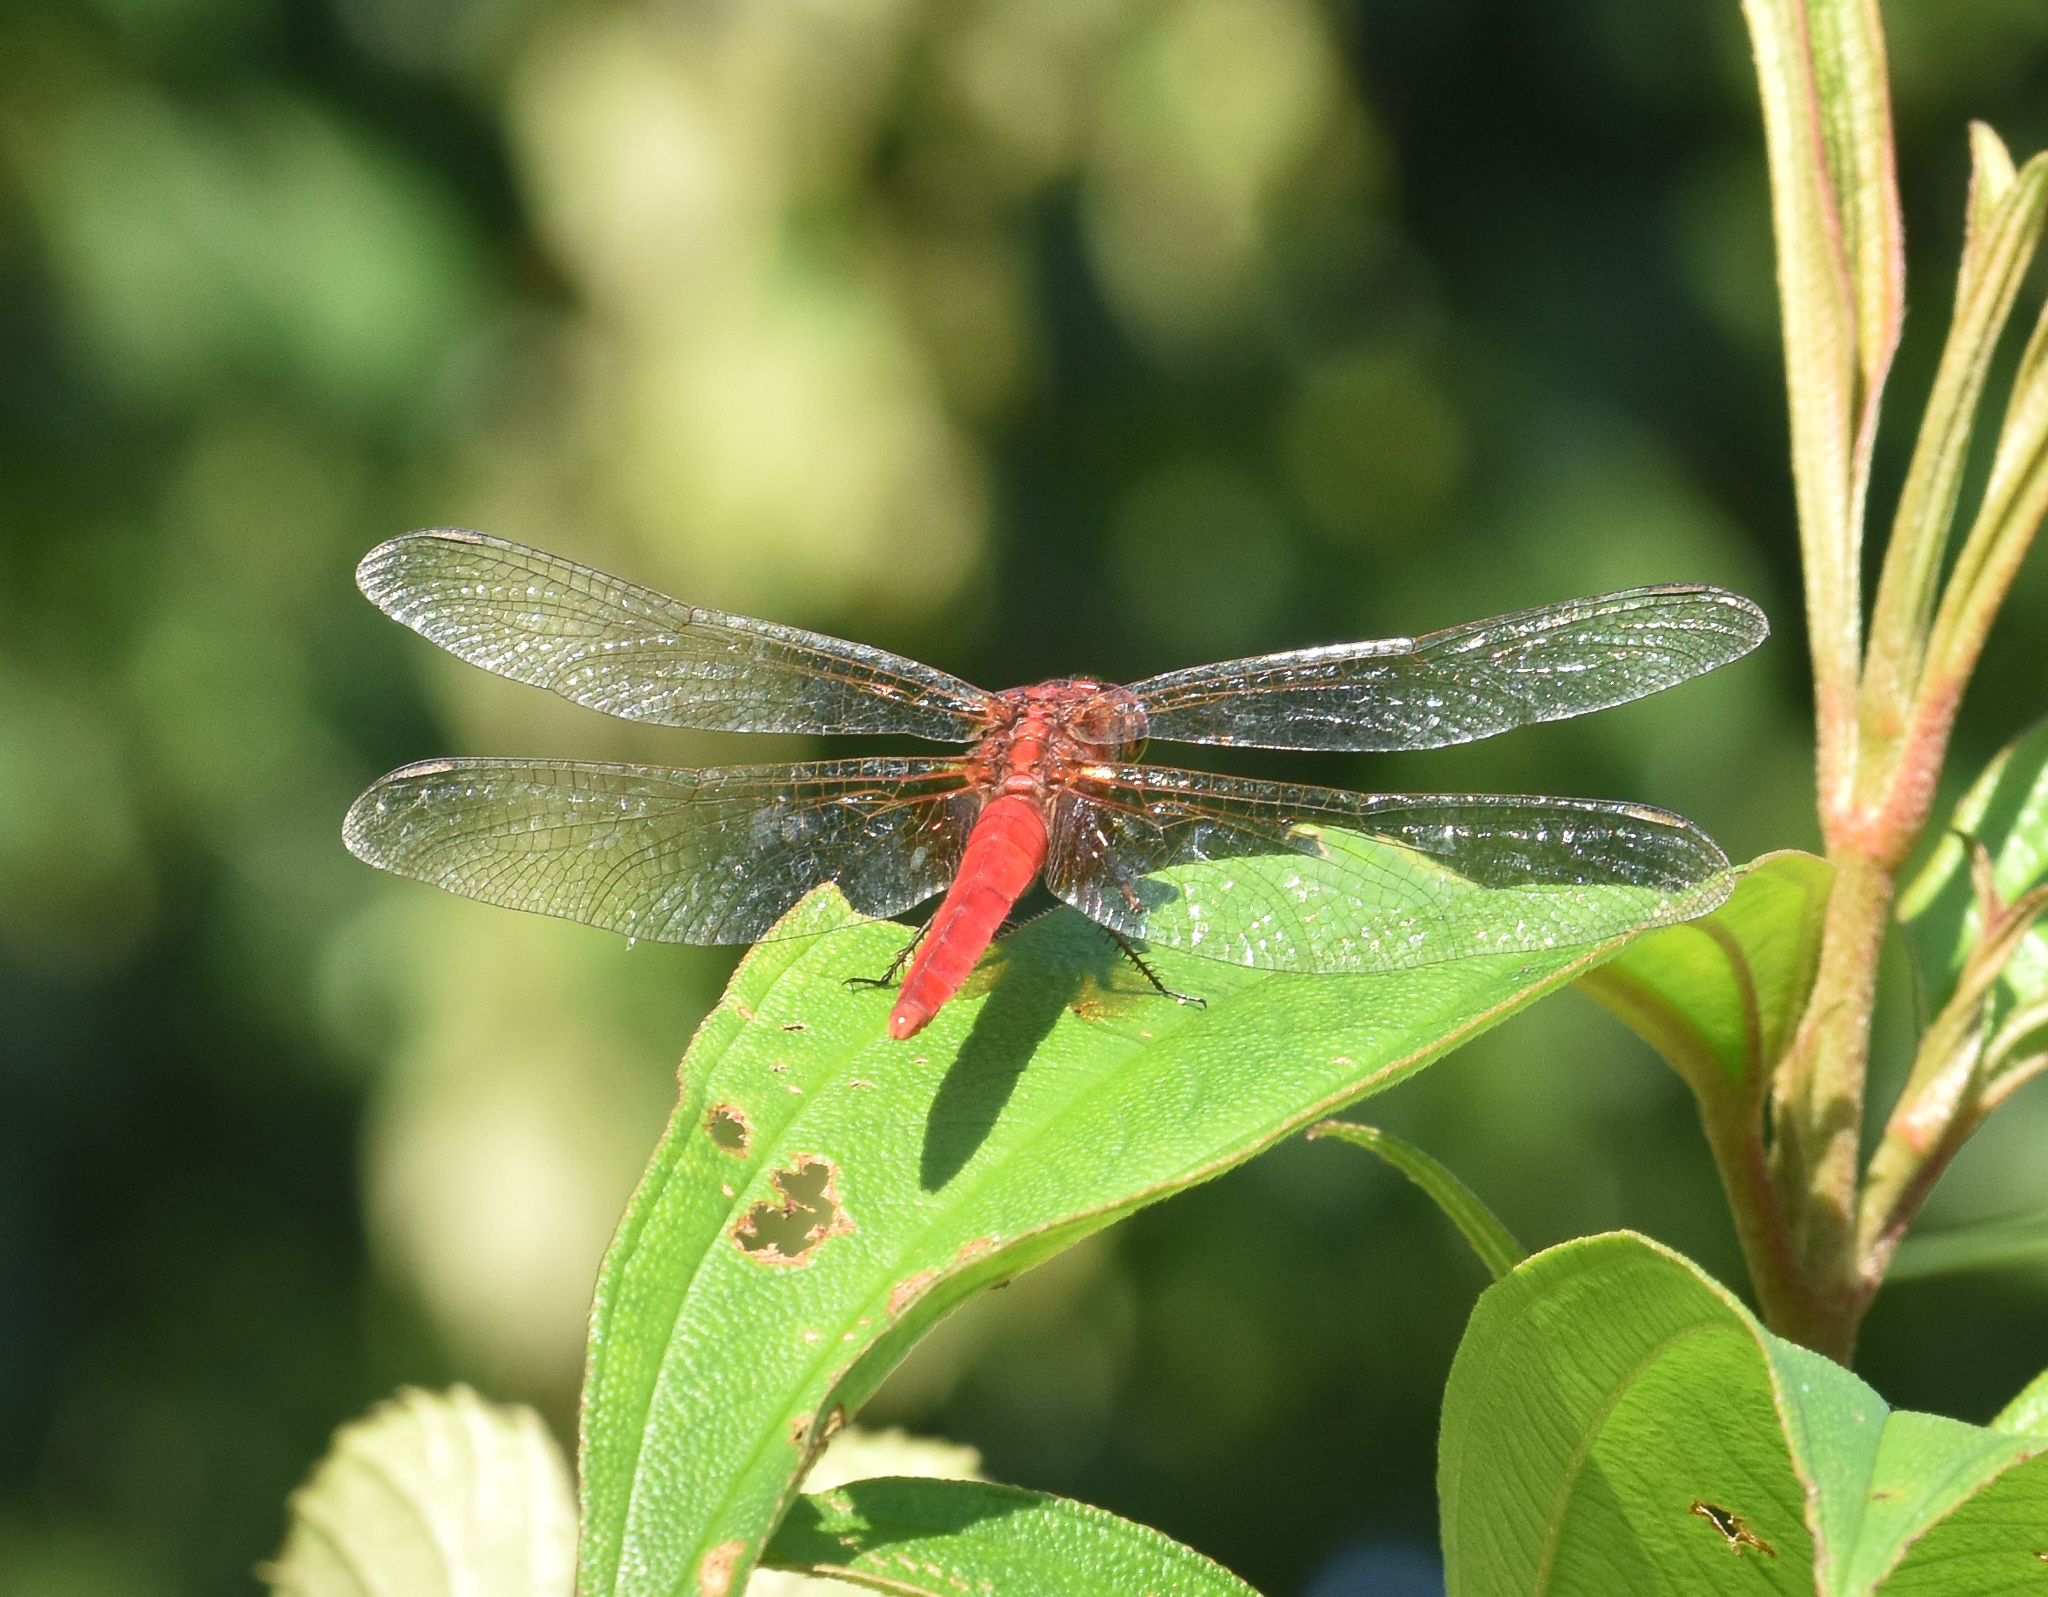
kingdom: Animalia
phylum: Arthropoda
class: Insecta
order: Odonata
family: Libellulidae
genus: Crocothemis
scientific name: Crocothemis servilia
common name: Scarlet skimmer
